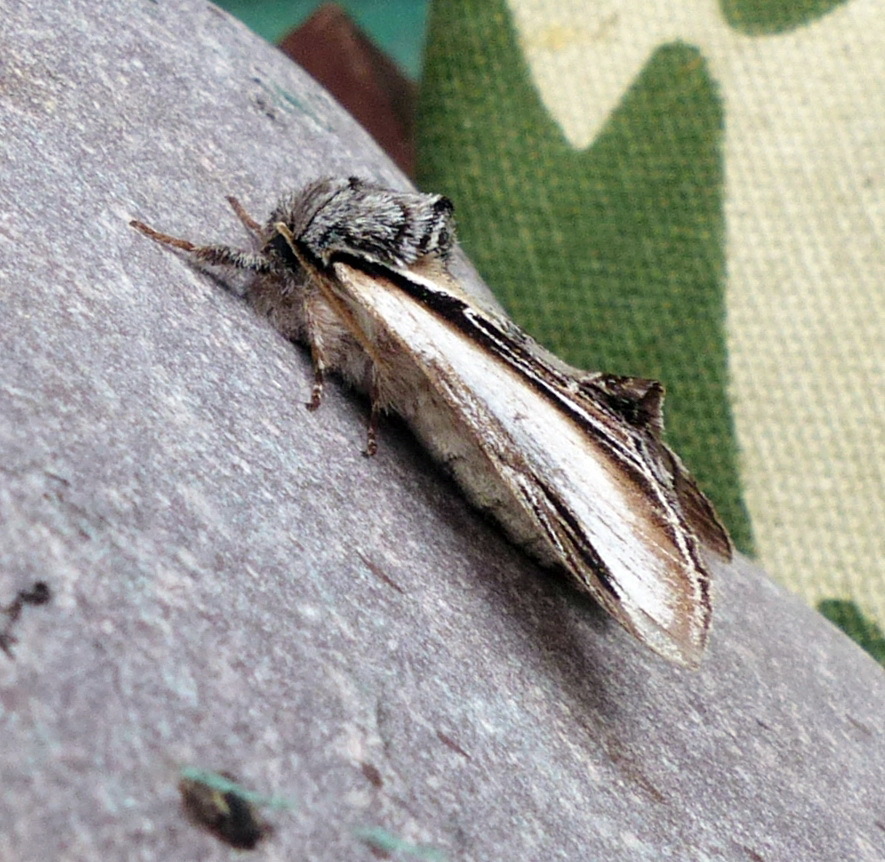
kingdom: Animalia
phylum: Arthropoda
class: Insecta
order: Lepidoptera
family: Notodontidae
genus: Pheosia
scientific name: Pheosia rimosa
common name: Black-rimmed prominent
